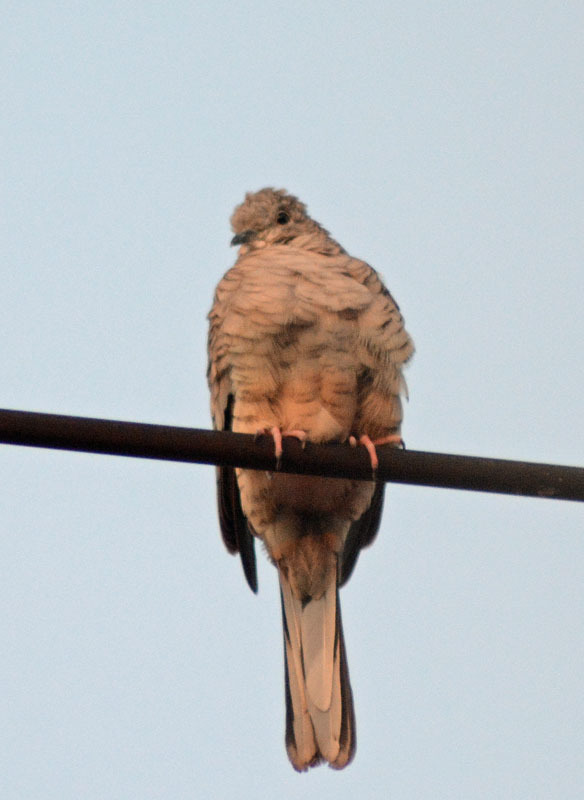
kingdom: Animalia
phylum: Chordata
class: Aves
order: Columbiformes
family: Columbidae
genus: Columbina
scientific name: Columbina inca
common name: Inca dove
